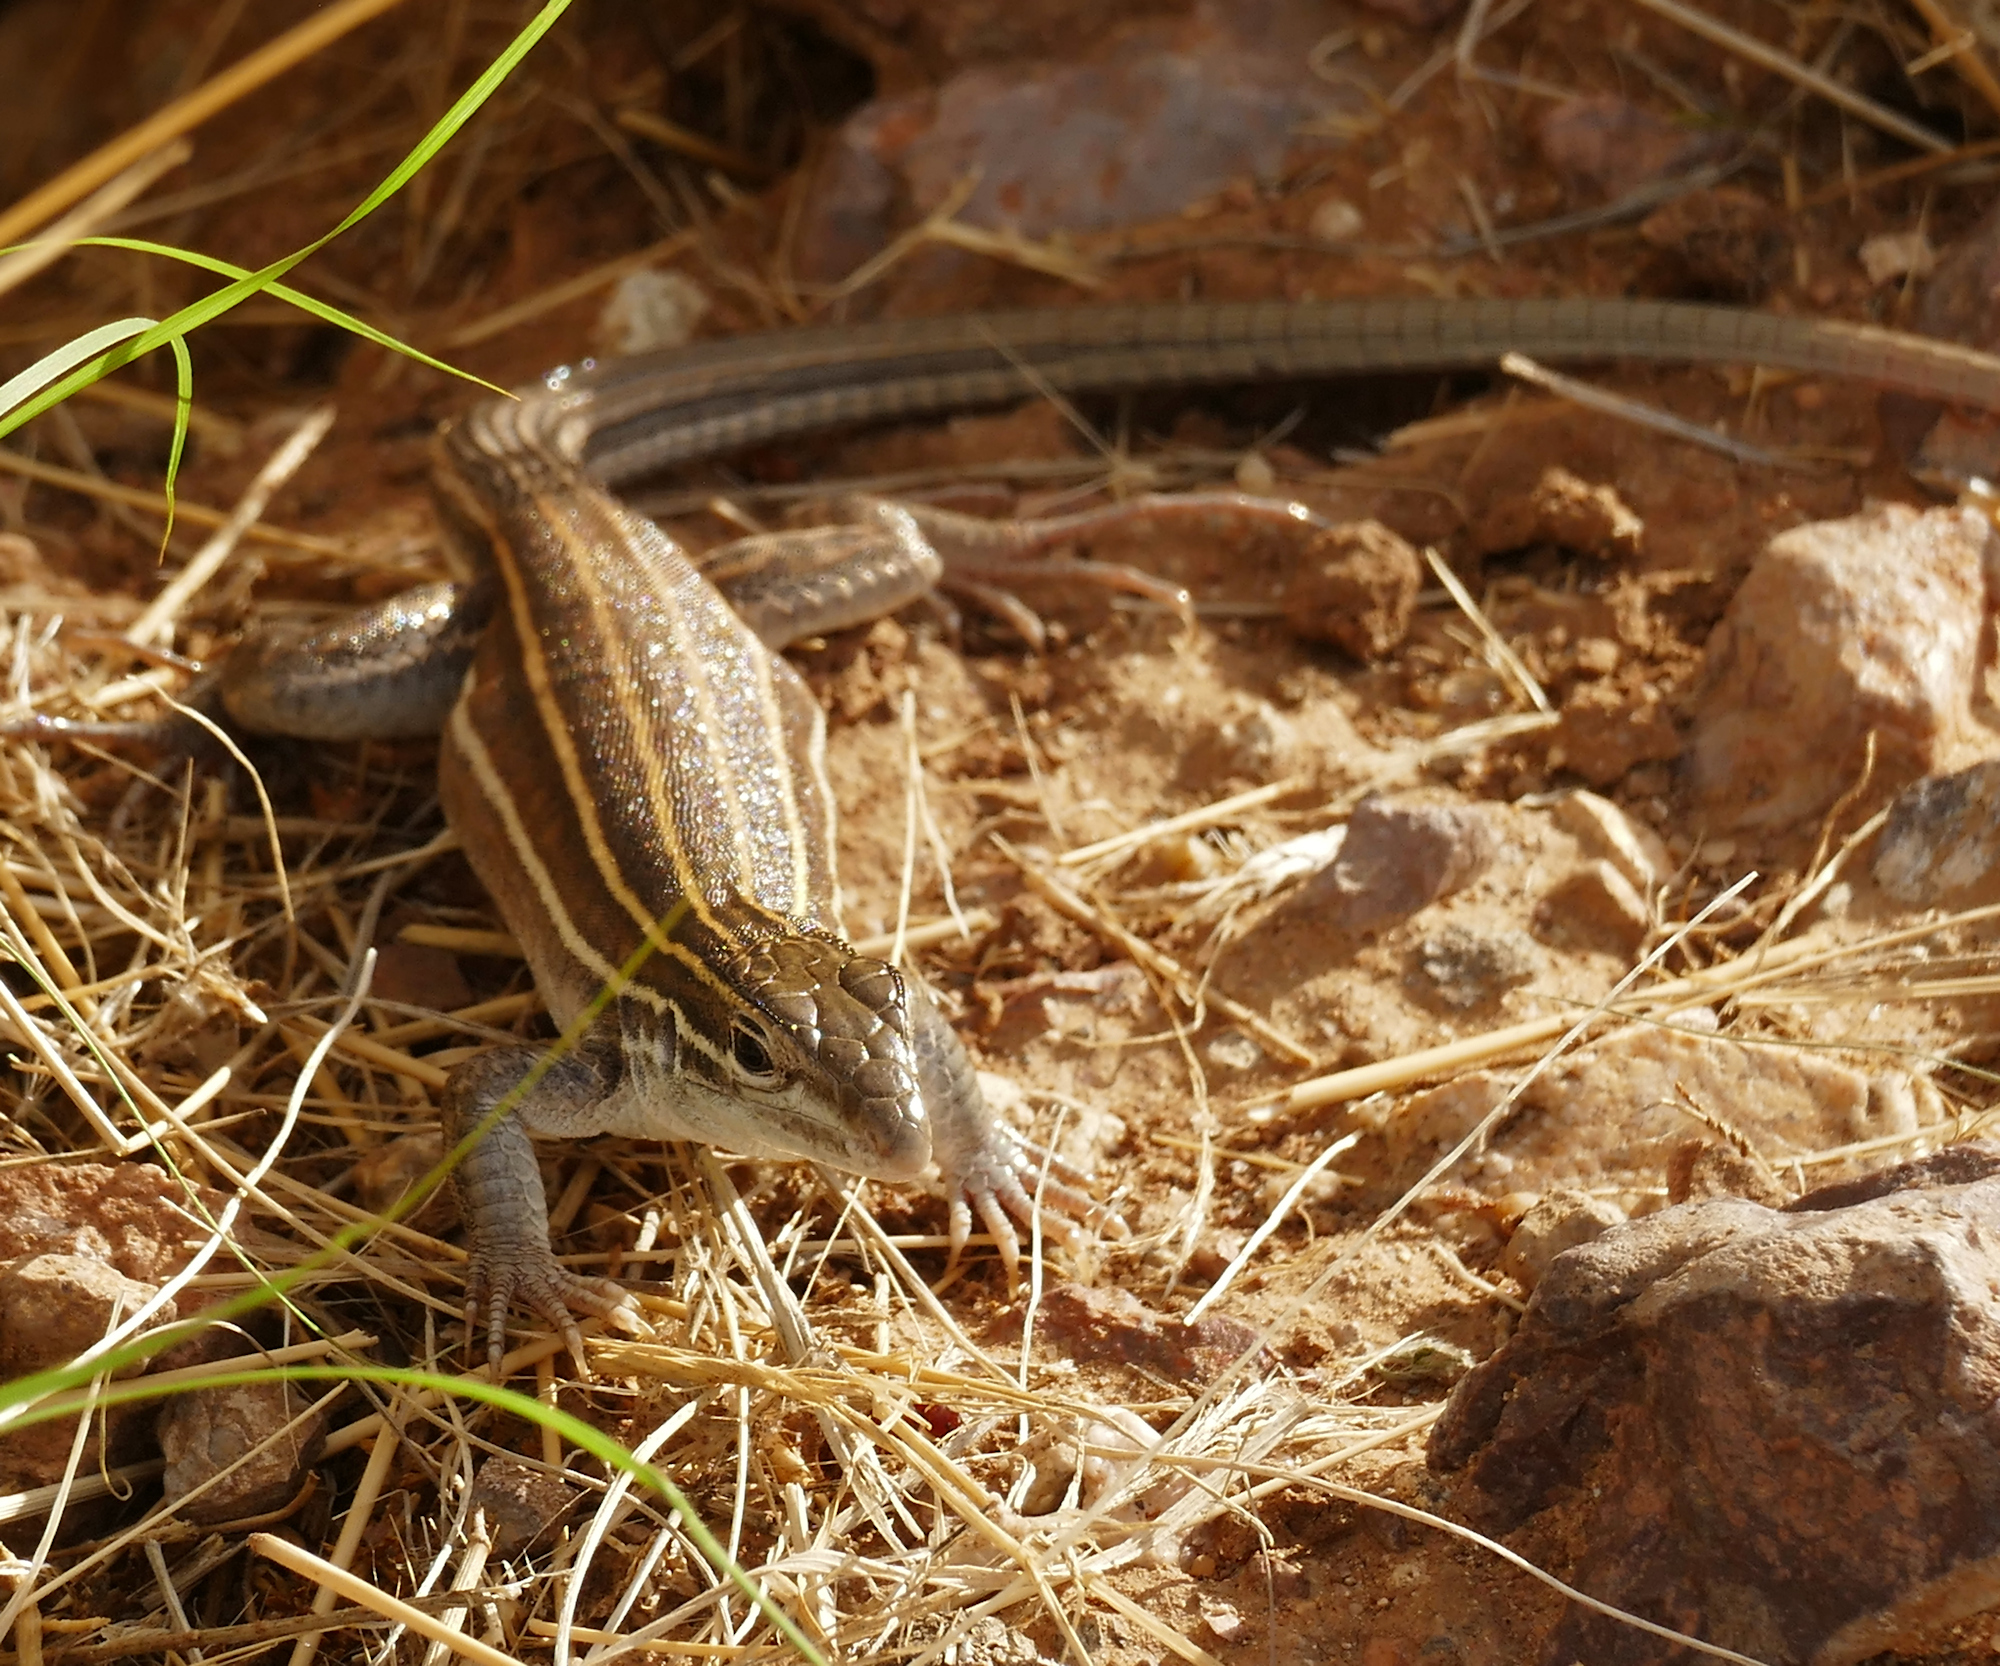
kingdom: Animalia
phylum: Chordata
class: Squamata
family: Teiidae
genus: Aspidoscelis
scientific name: Aspidoscelis uniparens
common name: Desert grassland whiptail
